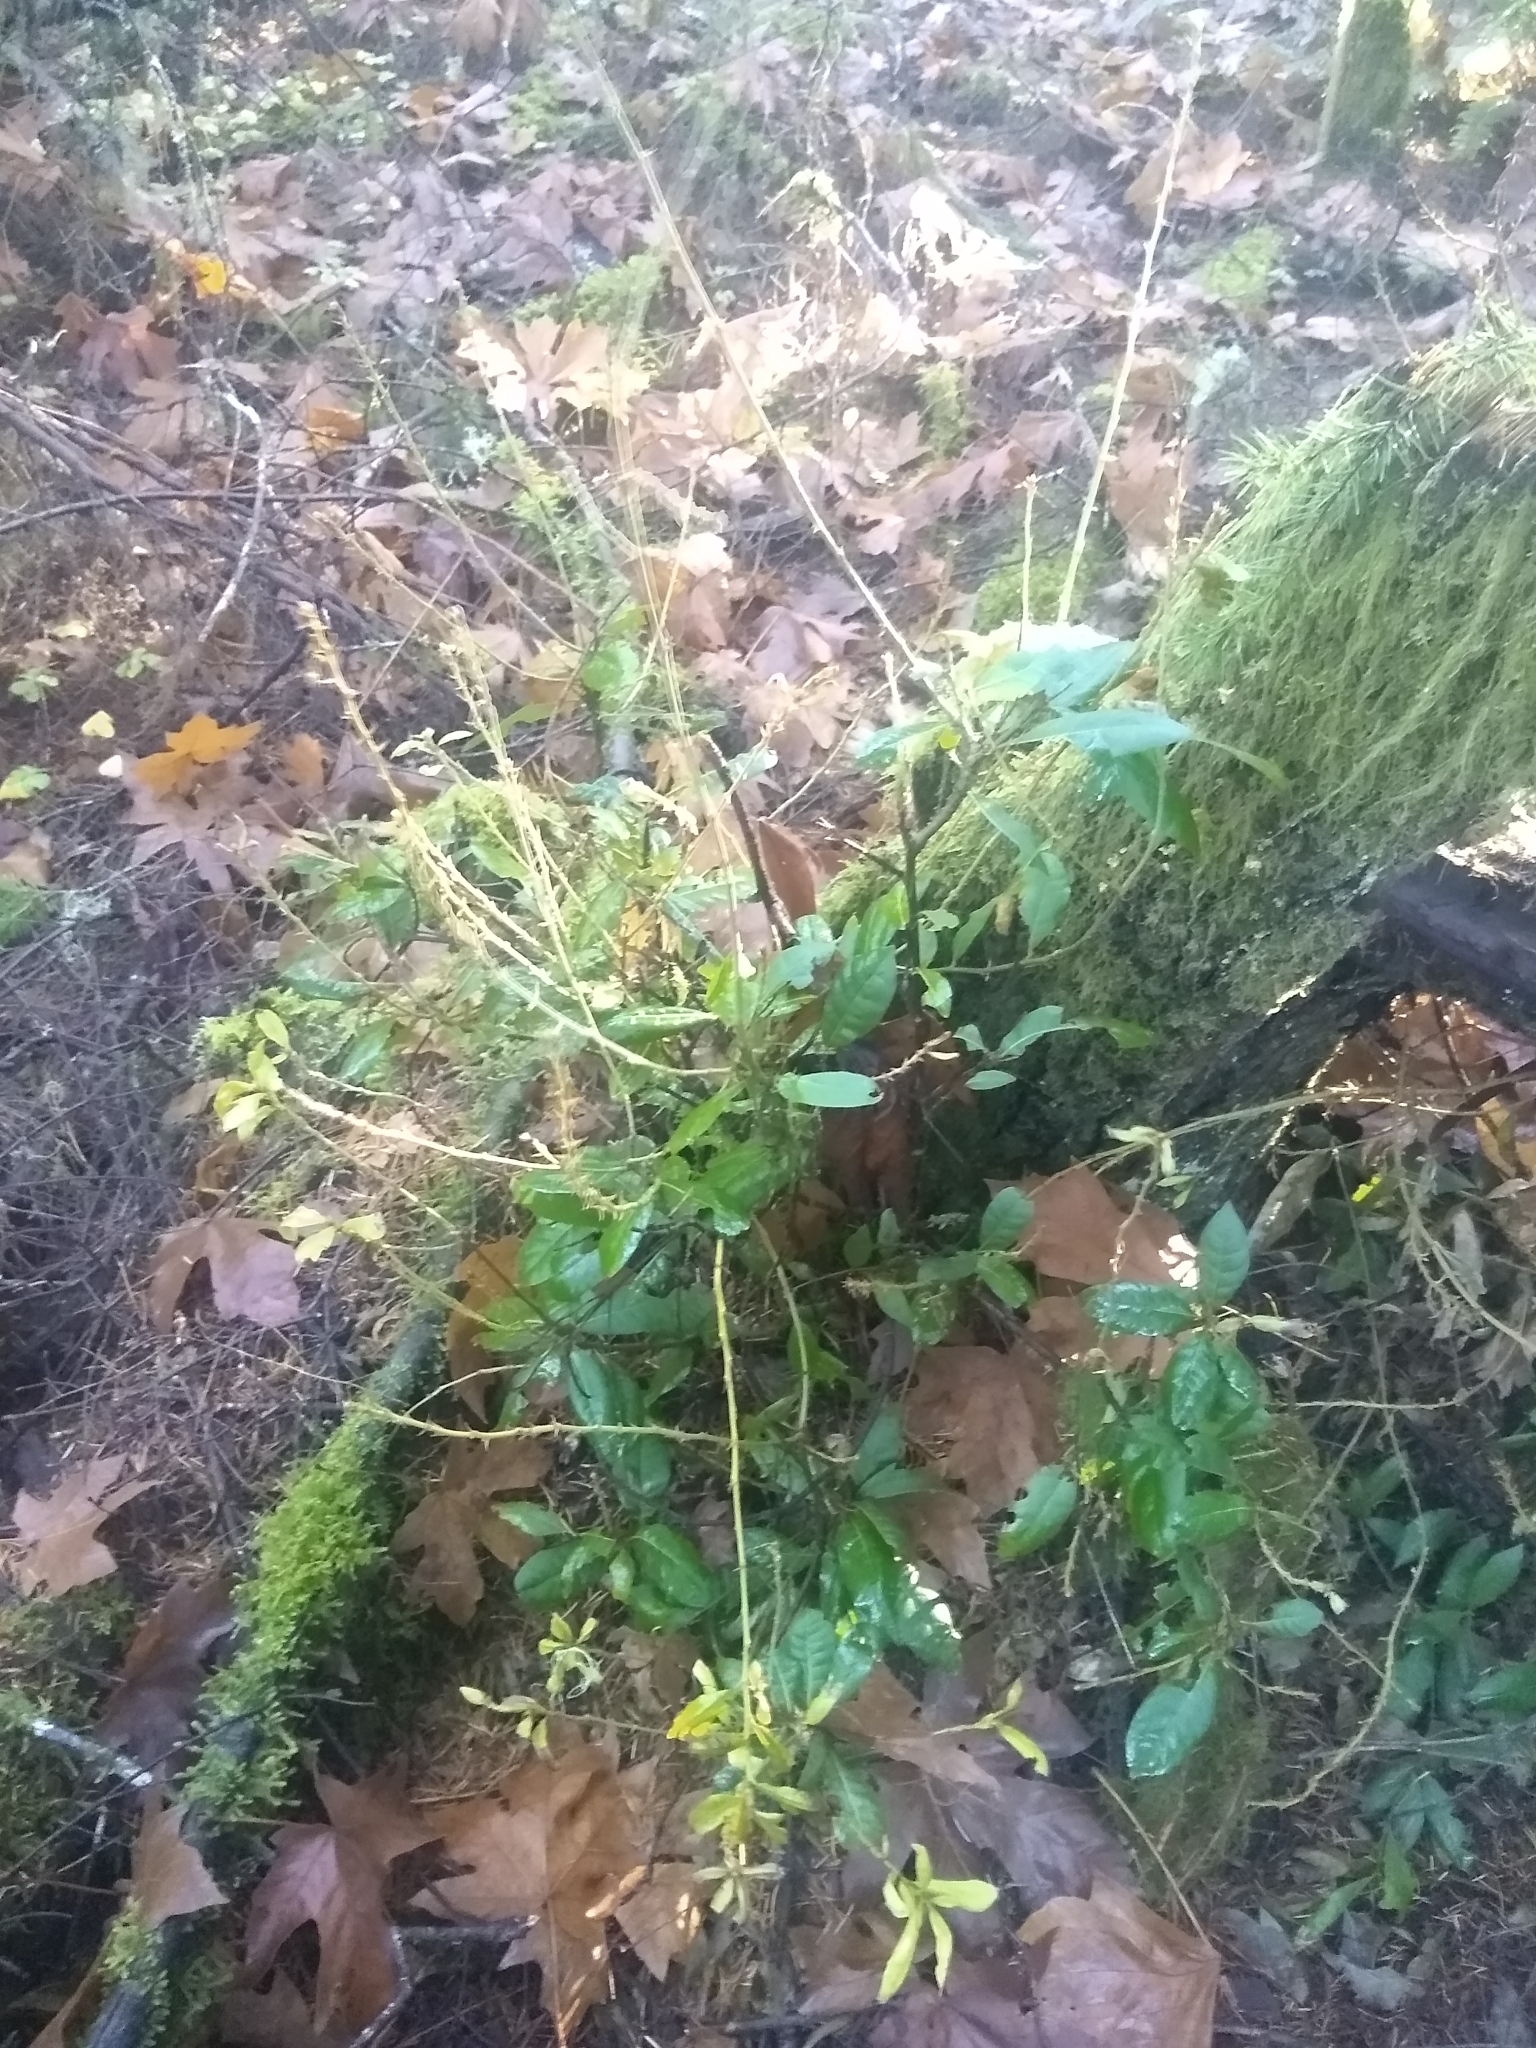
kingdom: Plantae
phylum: Tracheophyta
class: Magnoliopsida
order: Fagales
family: Fagaceae
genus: Chrysolepis
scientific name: Chrysolepis chrysophylla
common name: Giant chinquapin
